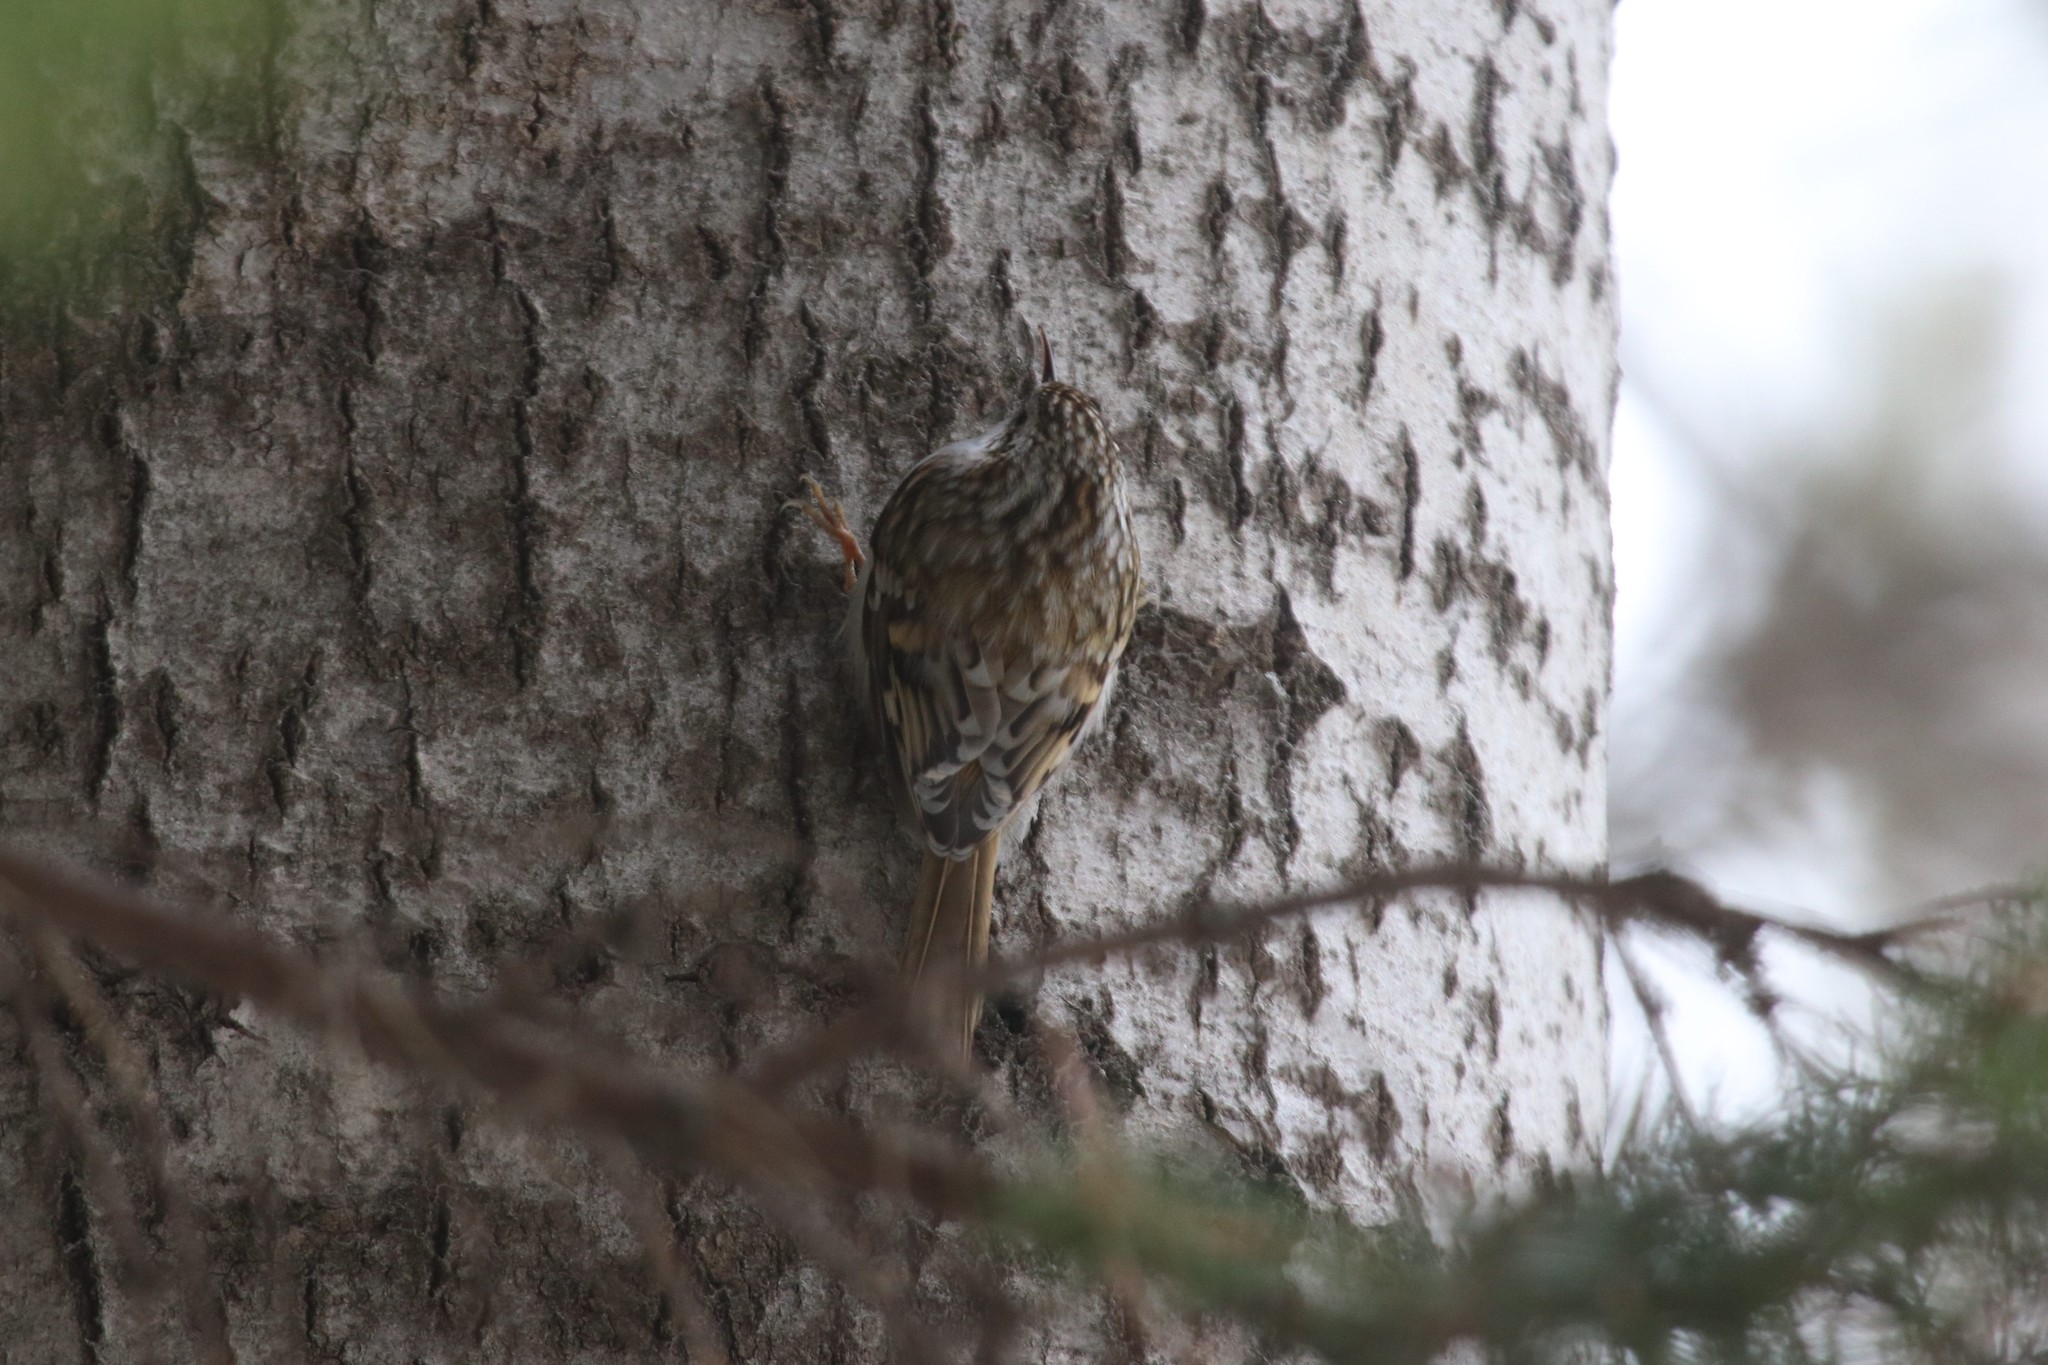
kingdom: Animalia
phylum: Chordata
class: Aves
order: Passeriformes
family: Certhiidae
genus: Certhia
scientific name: Certhia familiaris
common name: Eurasian treecreeper
